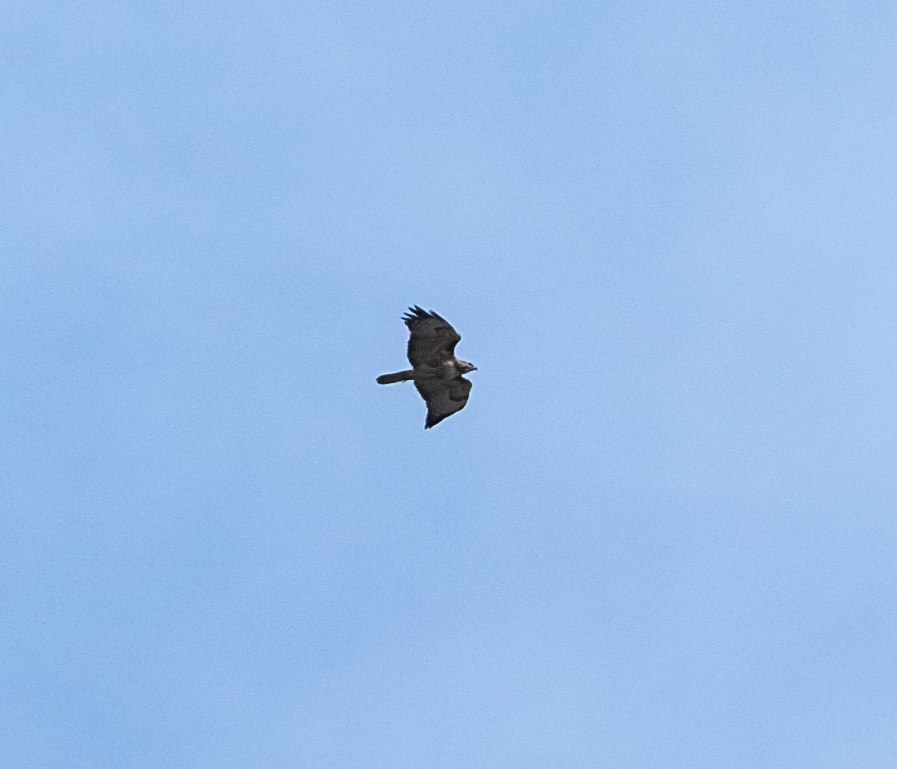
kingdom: Animalia
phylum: Chordata
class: Aves
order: Accipitriformes
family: Accipitridae
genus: Buteo
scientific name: Buteo jamaicensis
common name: Red-tailed hawk
